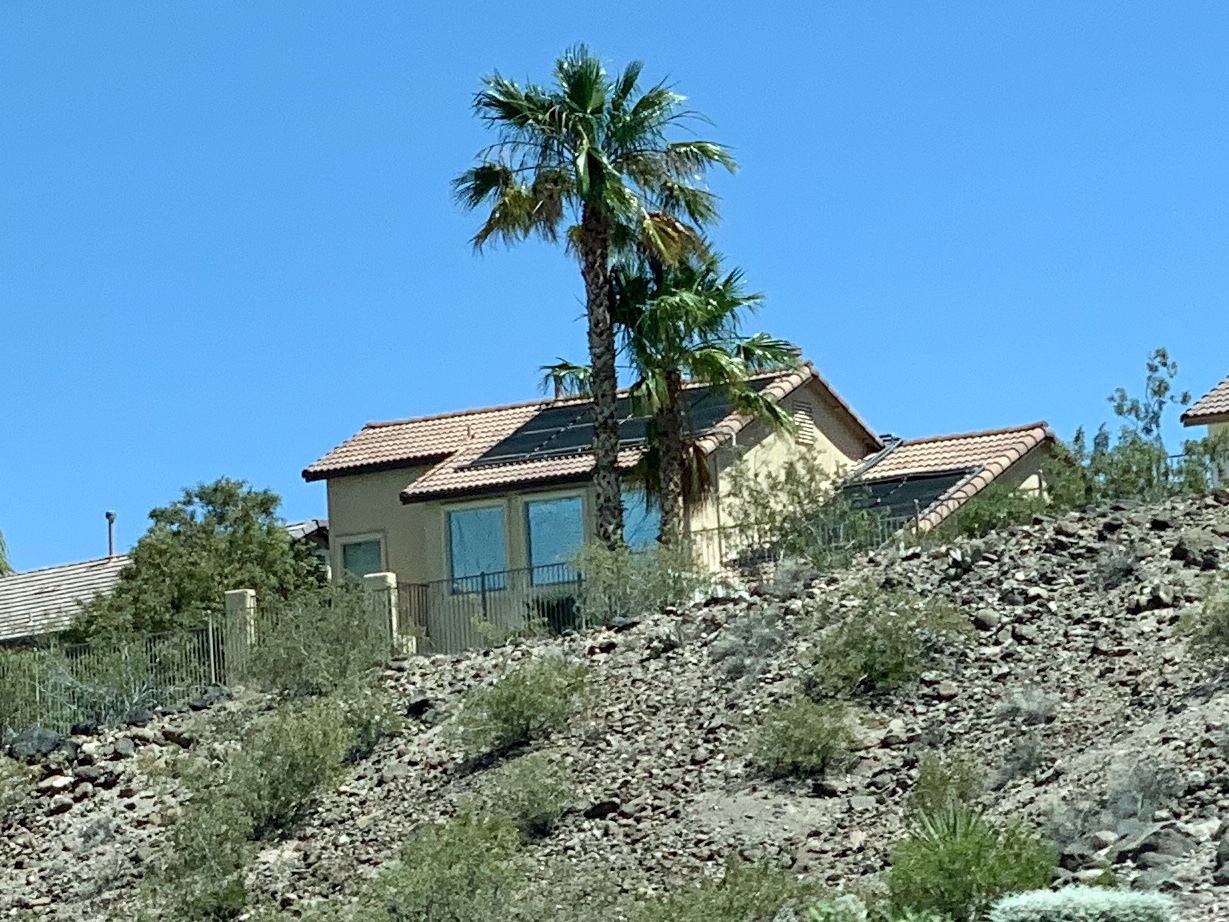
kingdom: Plantae
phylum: Tracheophyta
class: Magnoliopsida
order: Zygophyllales
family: Zygophyllaceae
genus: Larrea
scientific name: Larrea tridentata
